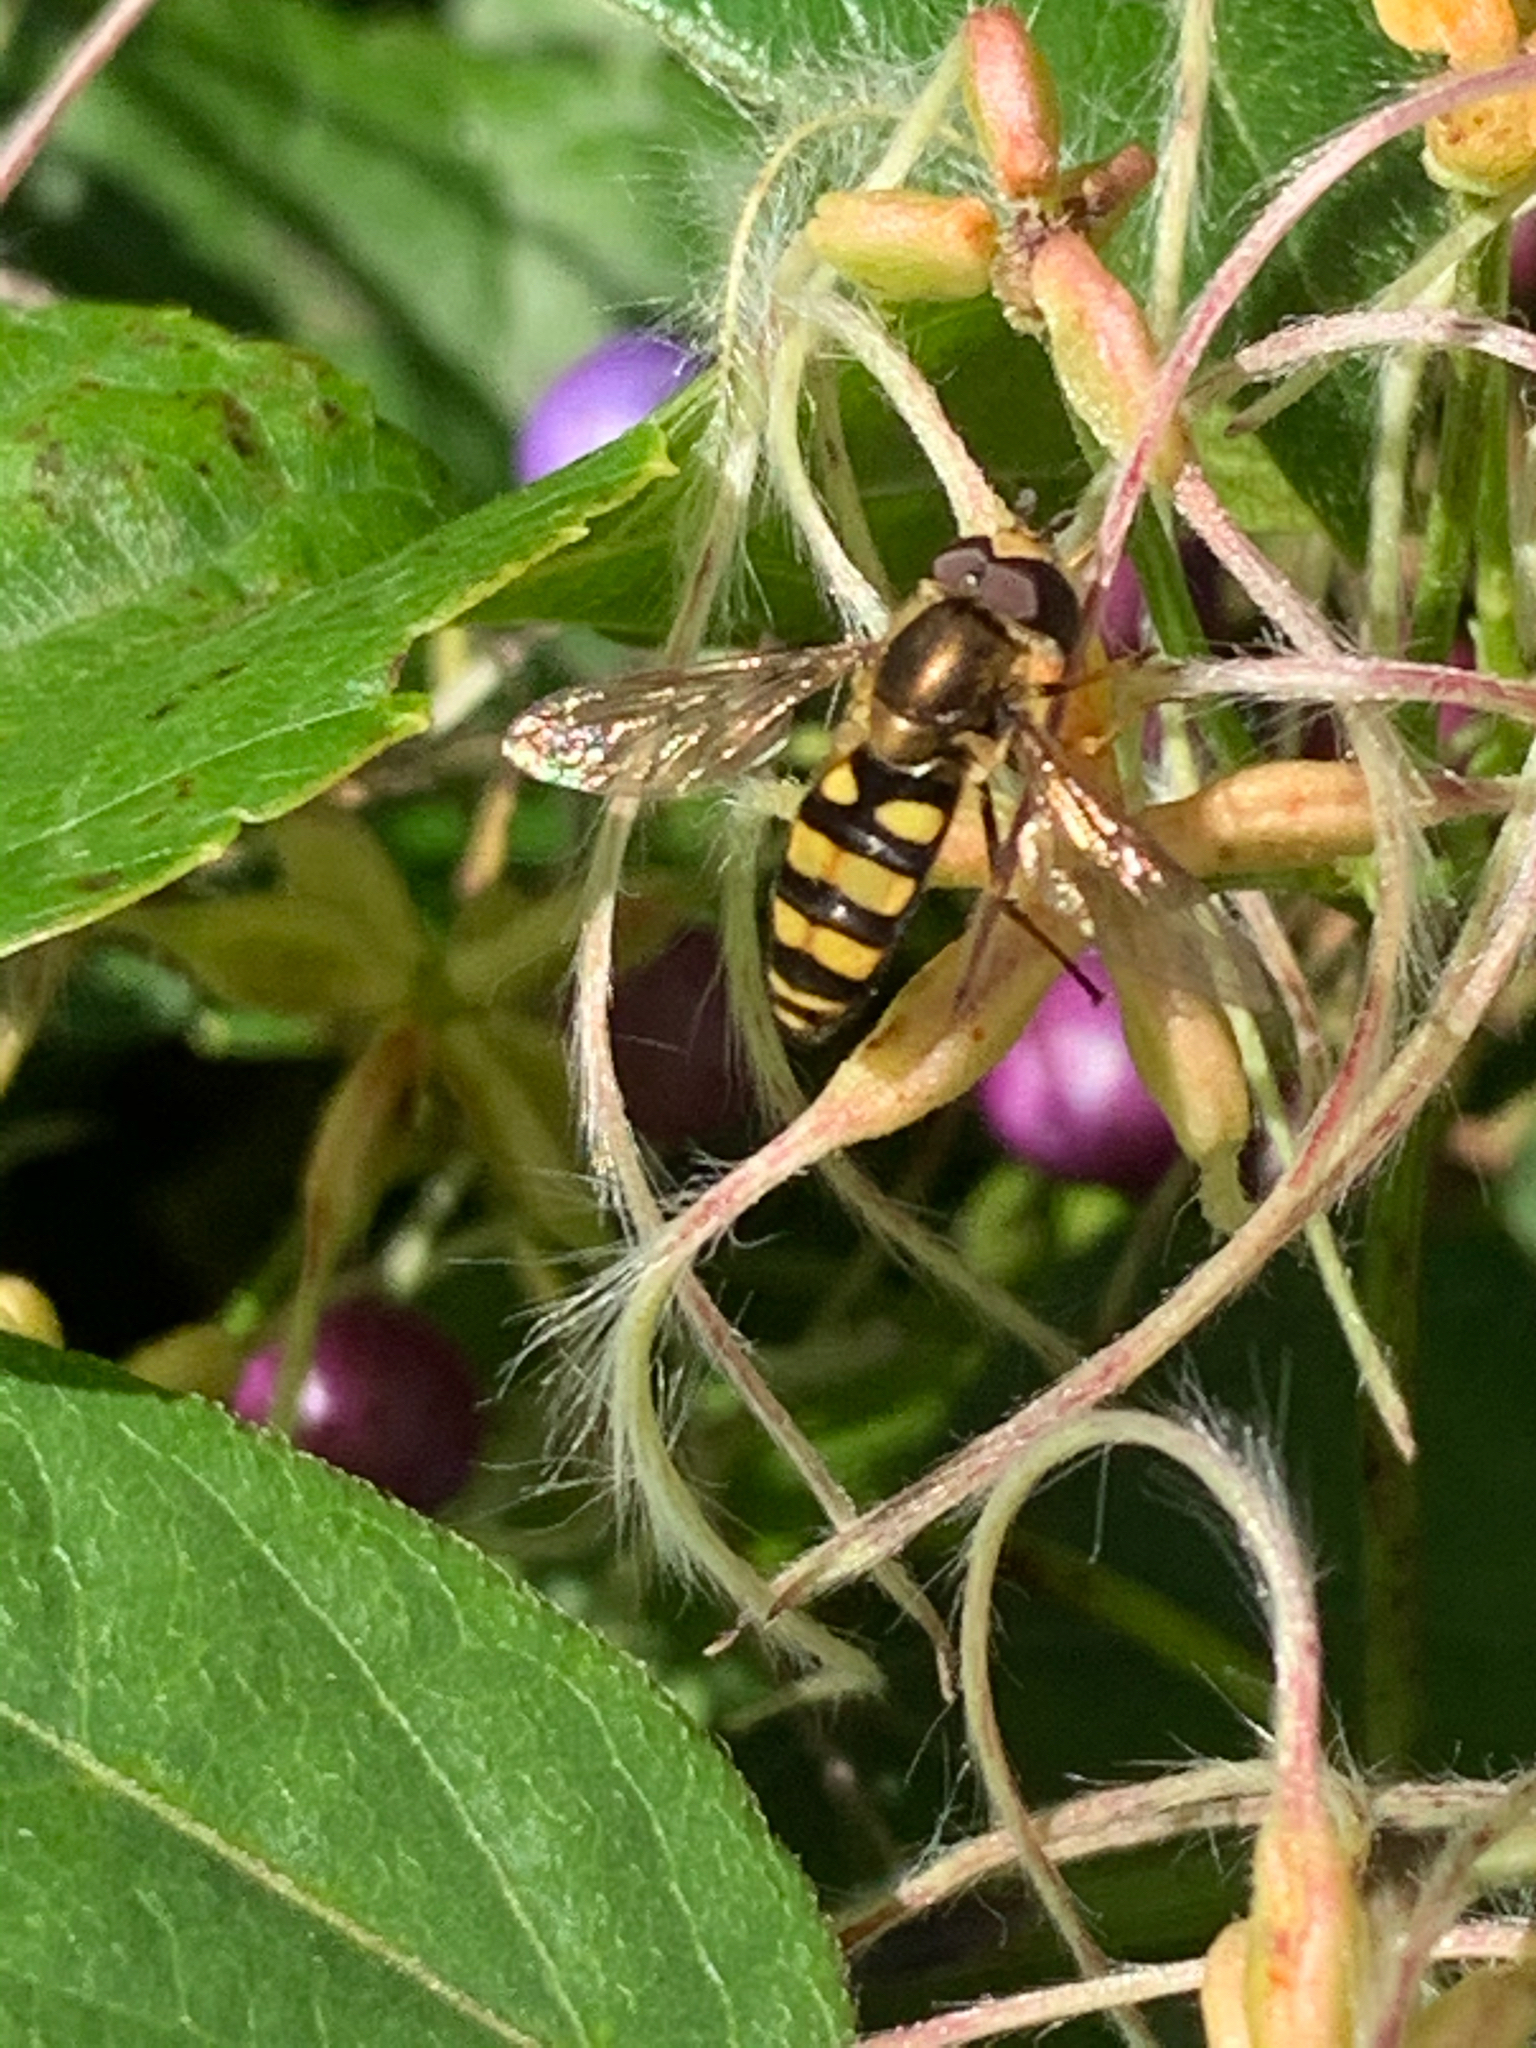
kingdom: Animalia
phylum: Arthropoda
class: Insecta
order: Diptera
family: Syrphidae
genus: Eupeodes
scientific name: Eupeodes
